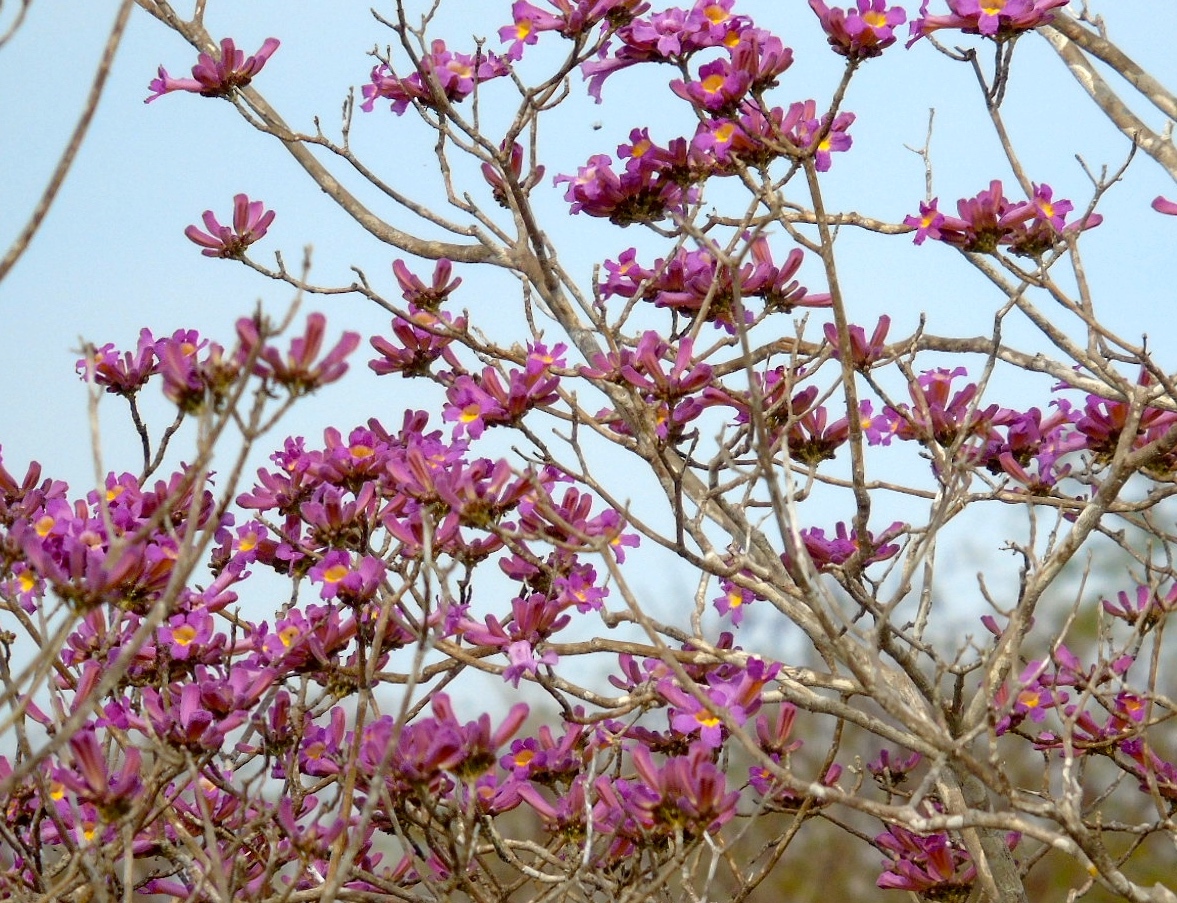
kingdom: Plantae
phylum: Tracheophyta
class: Magnoliopsida
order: Lamiales
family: Bignoniaceae
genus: Handroanthus
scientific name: Handroanthus impetiginosum
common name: Pink trumpet tree
